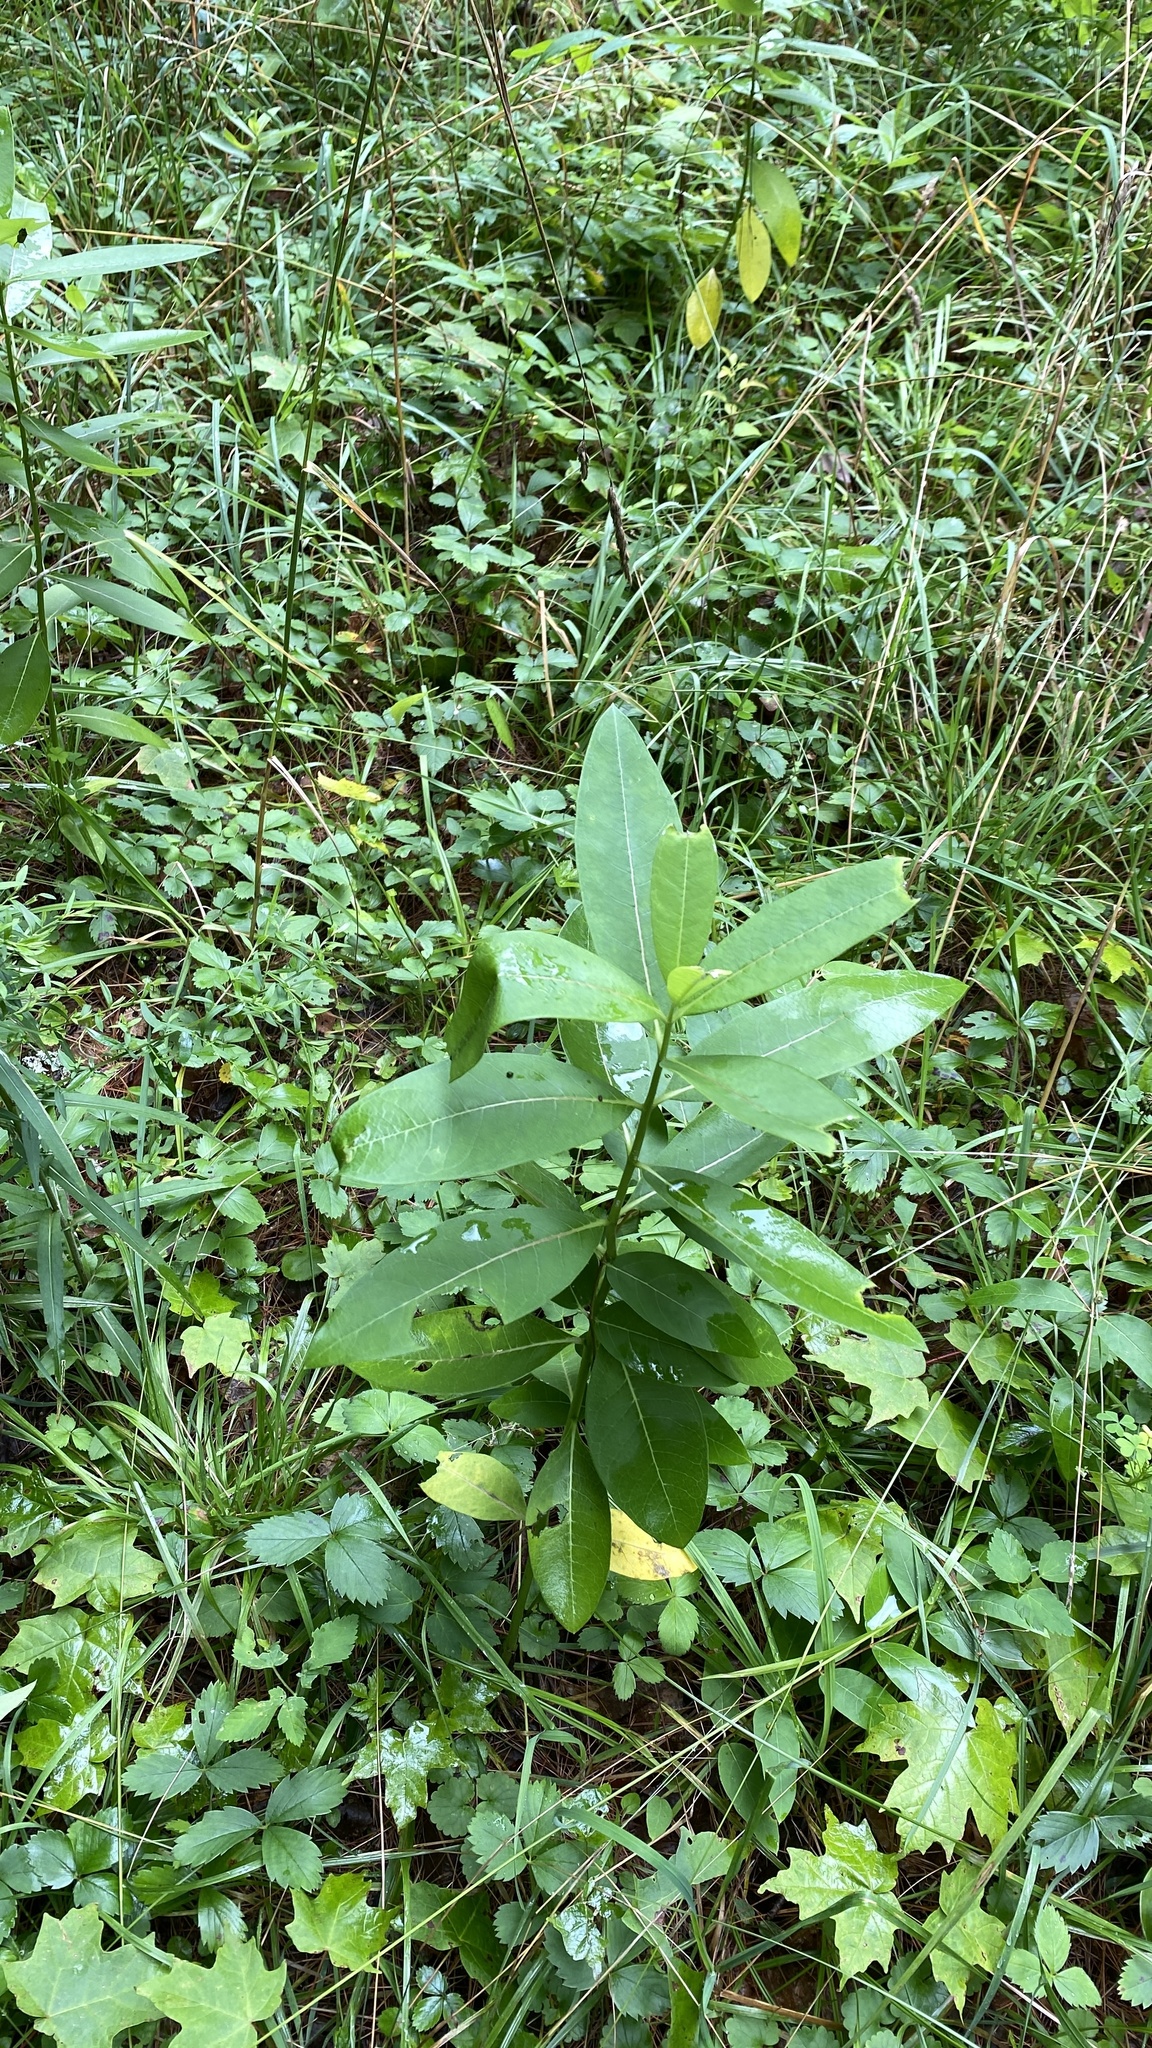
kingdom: Plantae
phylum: Tracheophyta
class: Magnoliopsida
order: Gentianales
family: Apocynaceae
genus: Asclepias
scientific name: Asclepias syriaca
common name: Common milkweed
